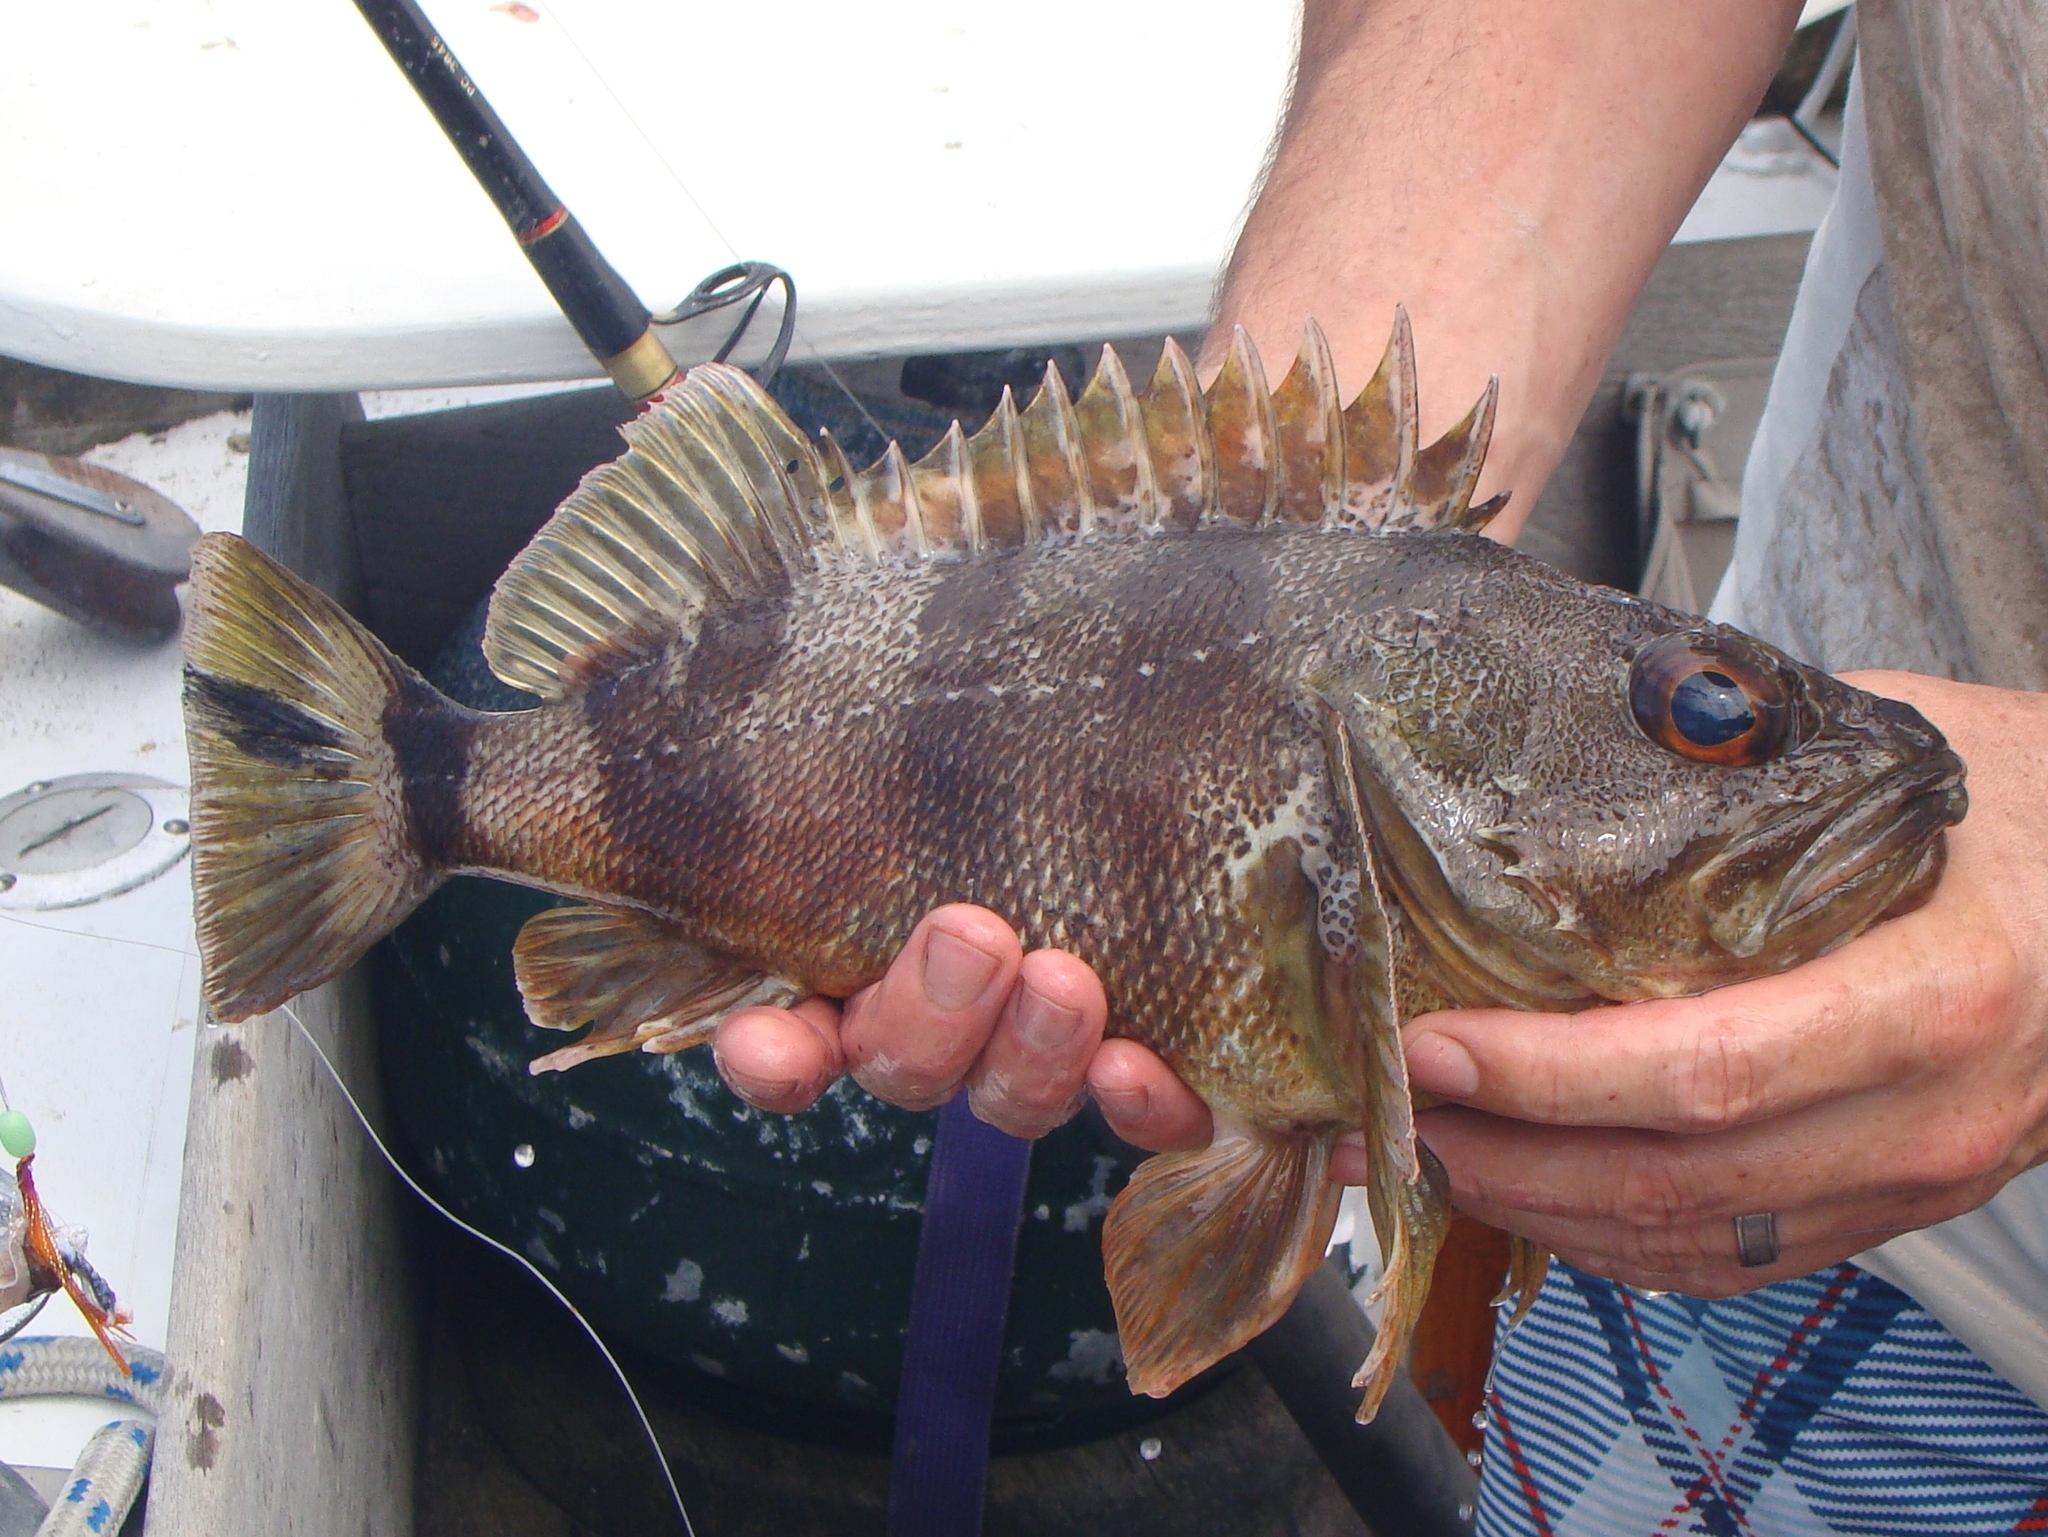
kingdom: Animalia
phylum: Chordata
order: Scorpaeniformes
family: Sebastidae
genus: Helicolenus
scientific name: Helicolenus percoides
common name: Jock stewart
